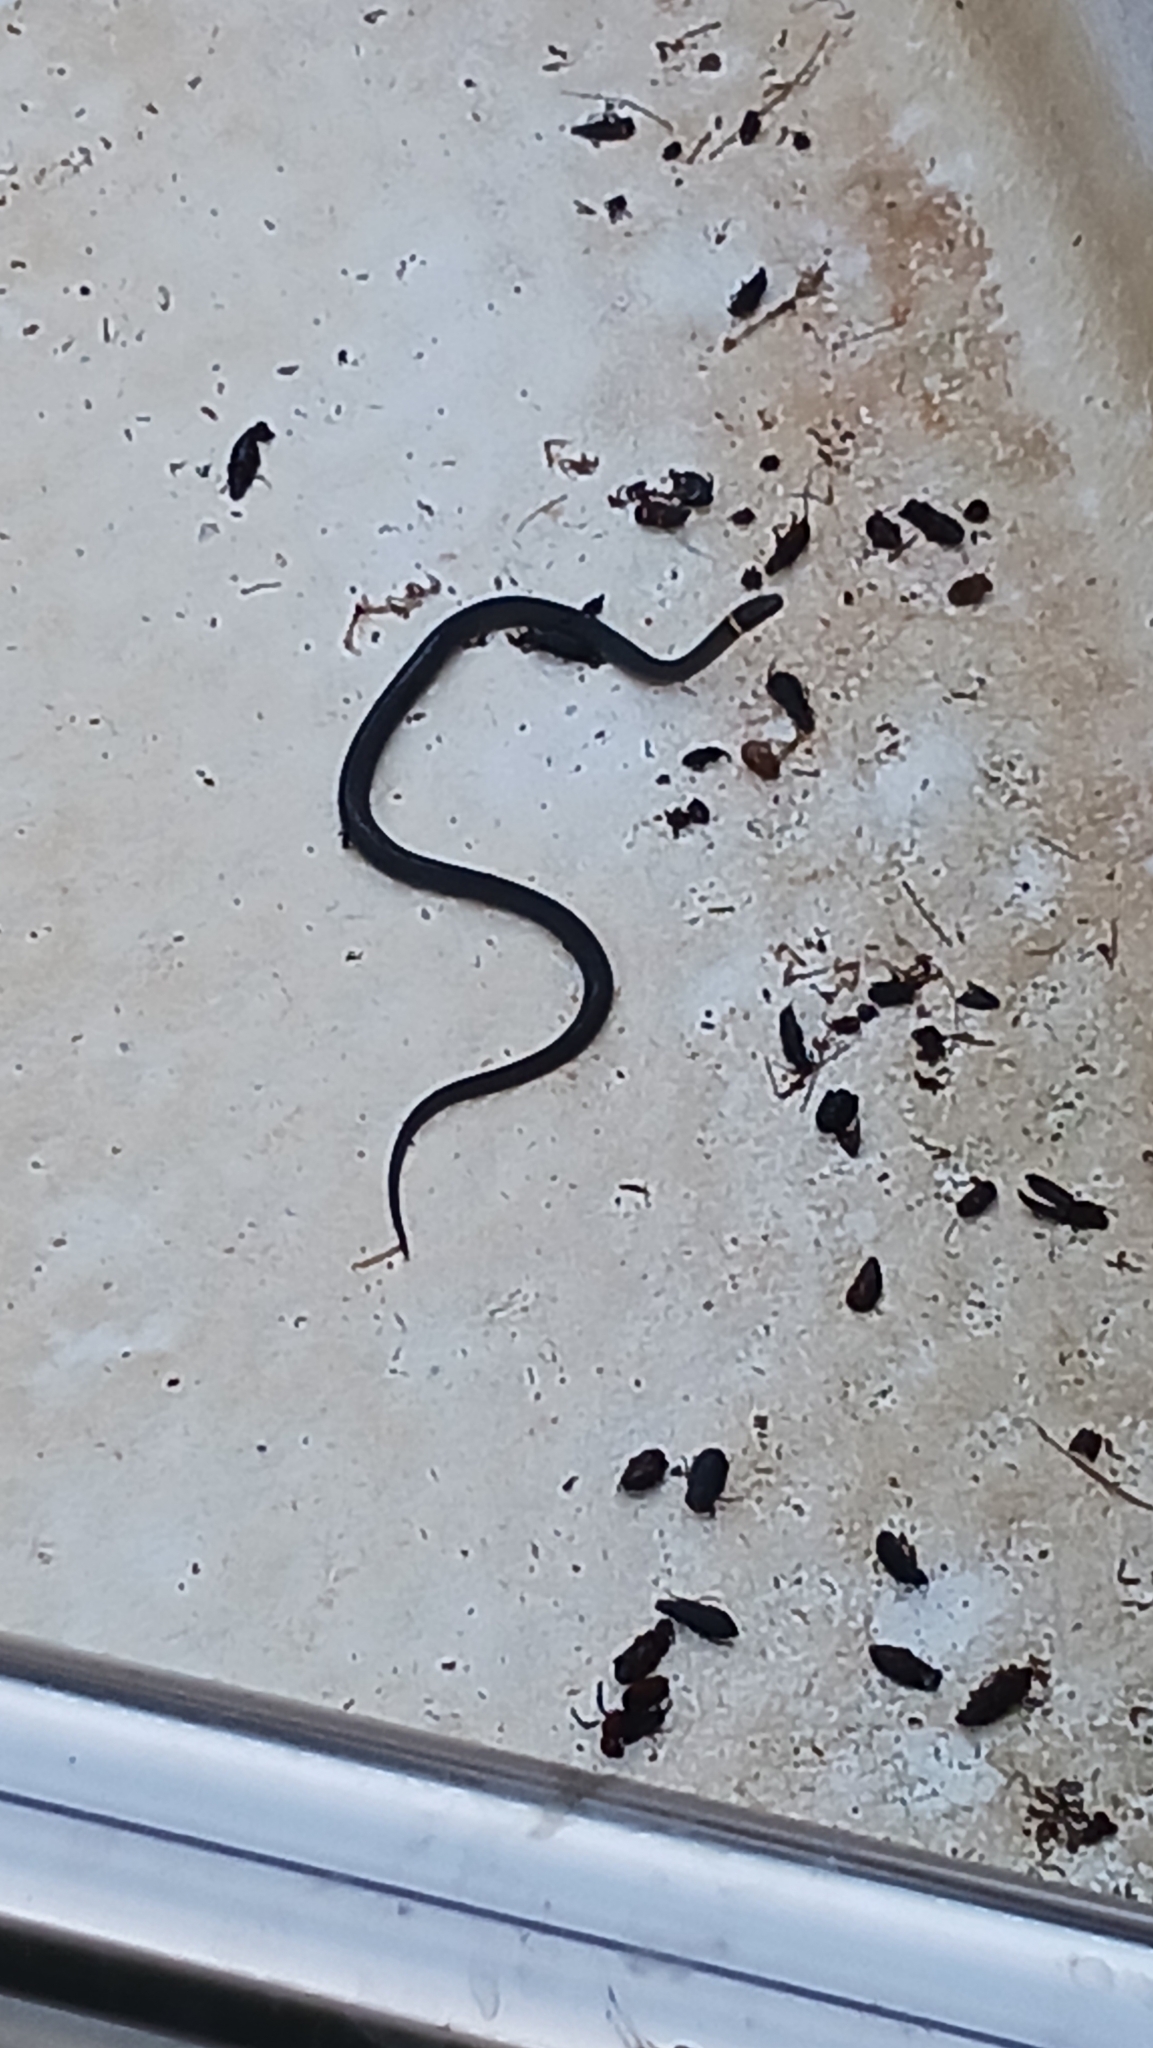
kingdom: Animalia
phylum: Chordata
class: Squamata
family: Colubridae
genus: Diadophis
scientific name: Diadophis punctatus
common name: Ringneck snake
